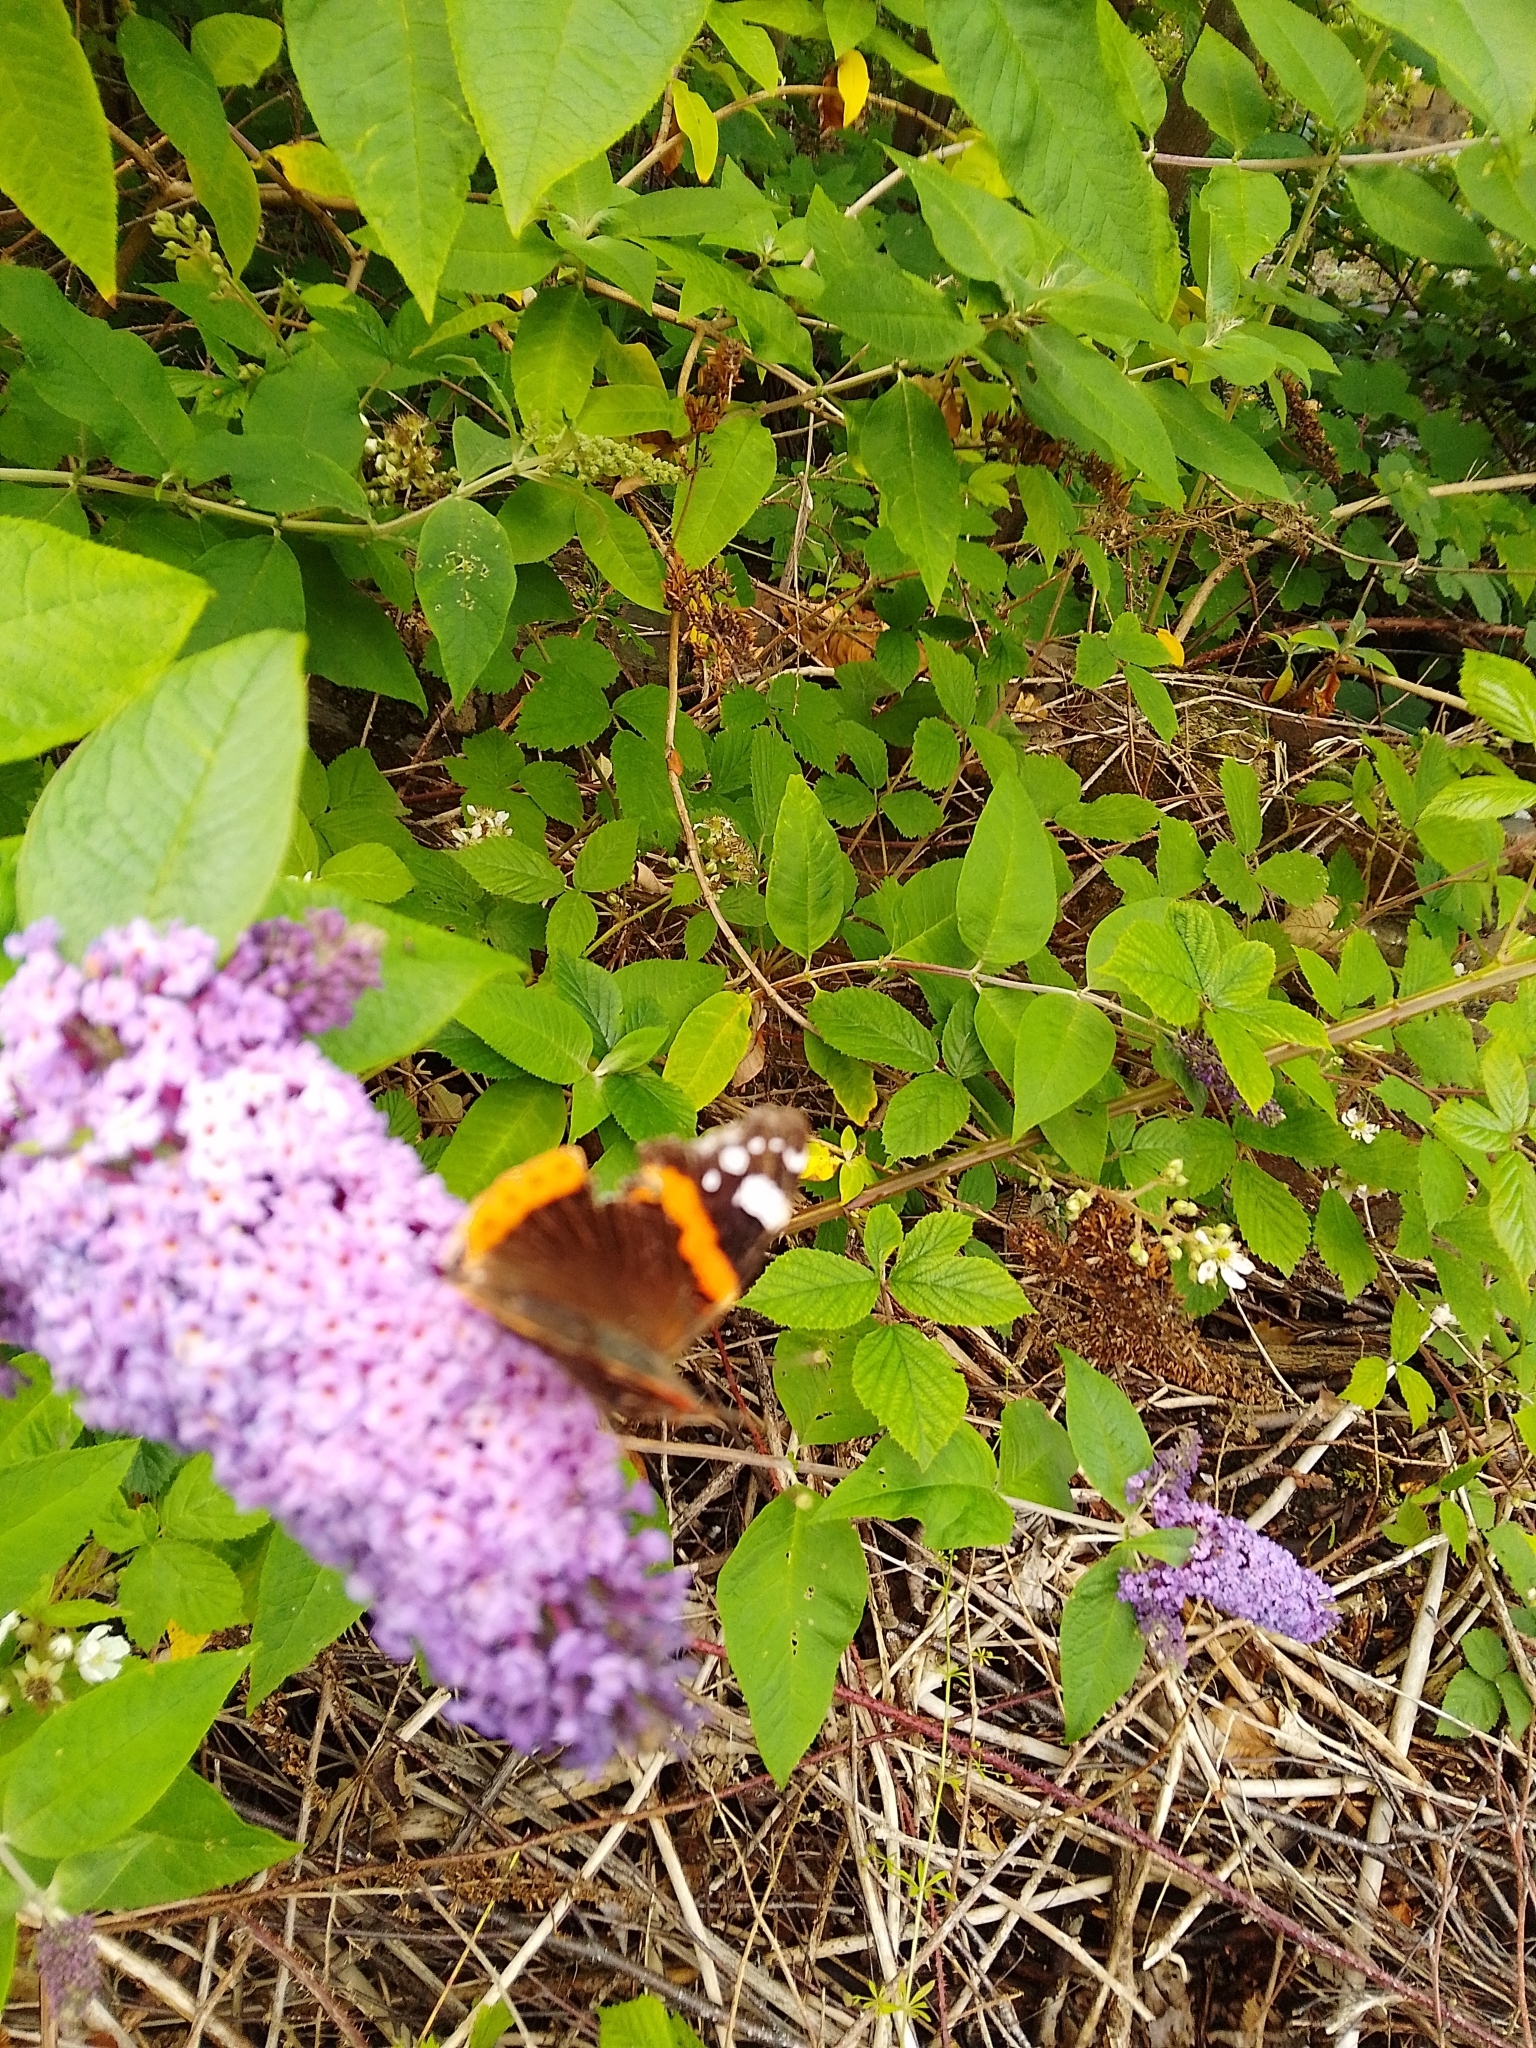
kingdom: Animalia
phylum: Arthropoda
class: Insecta
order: Lepidoptera
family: Nymphalidae
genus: Vanessa
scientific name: Vanessa atalanta
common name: Red admiral
